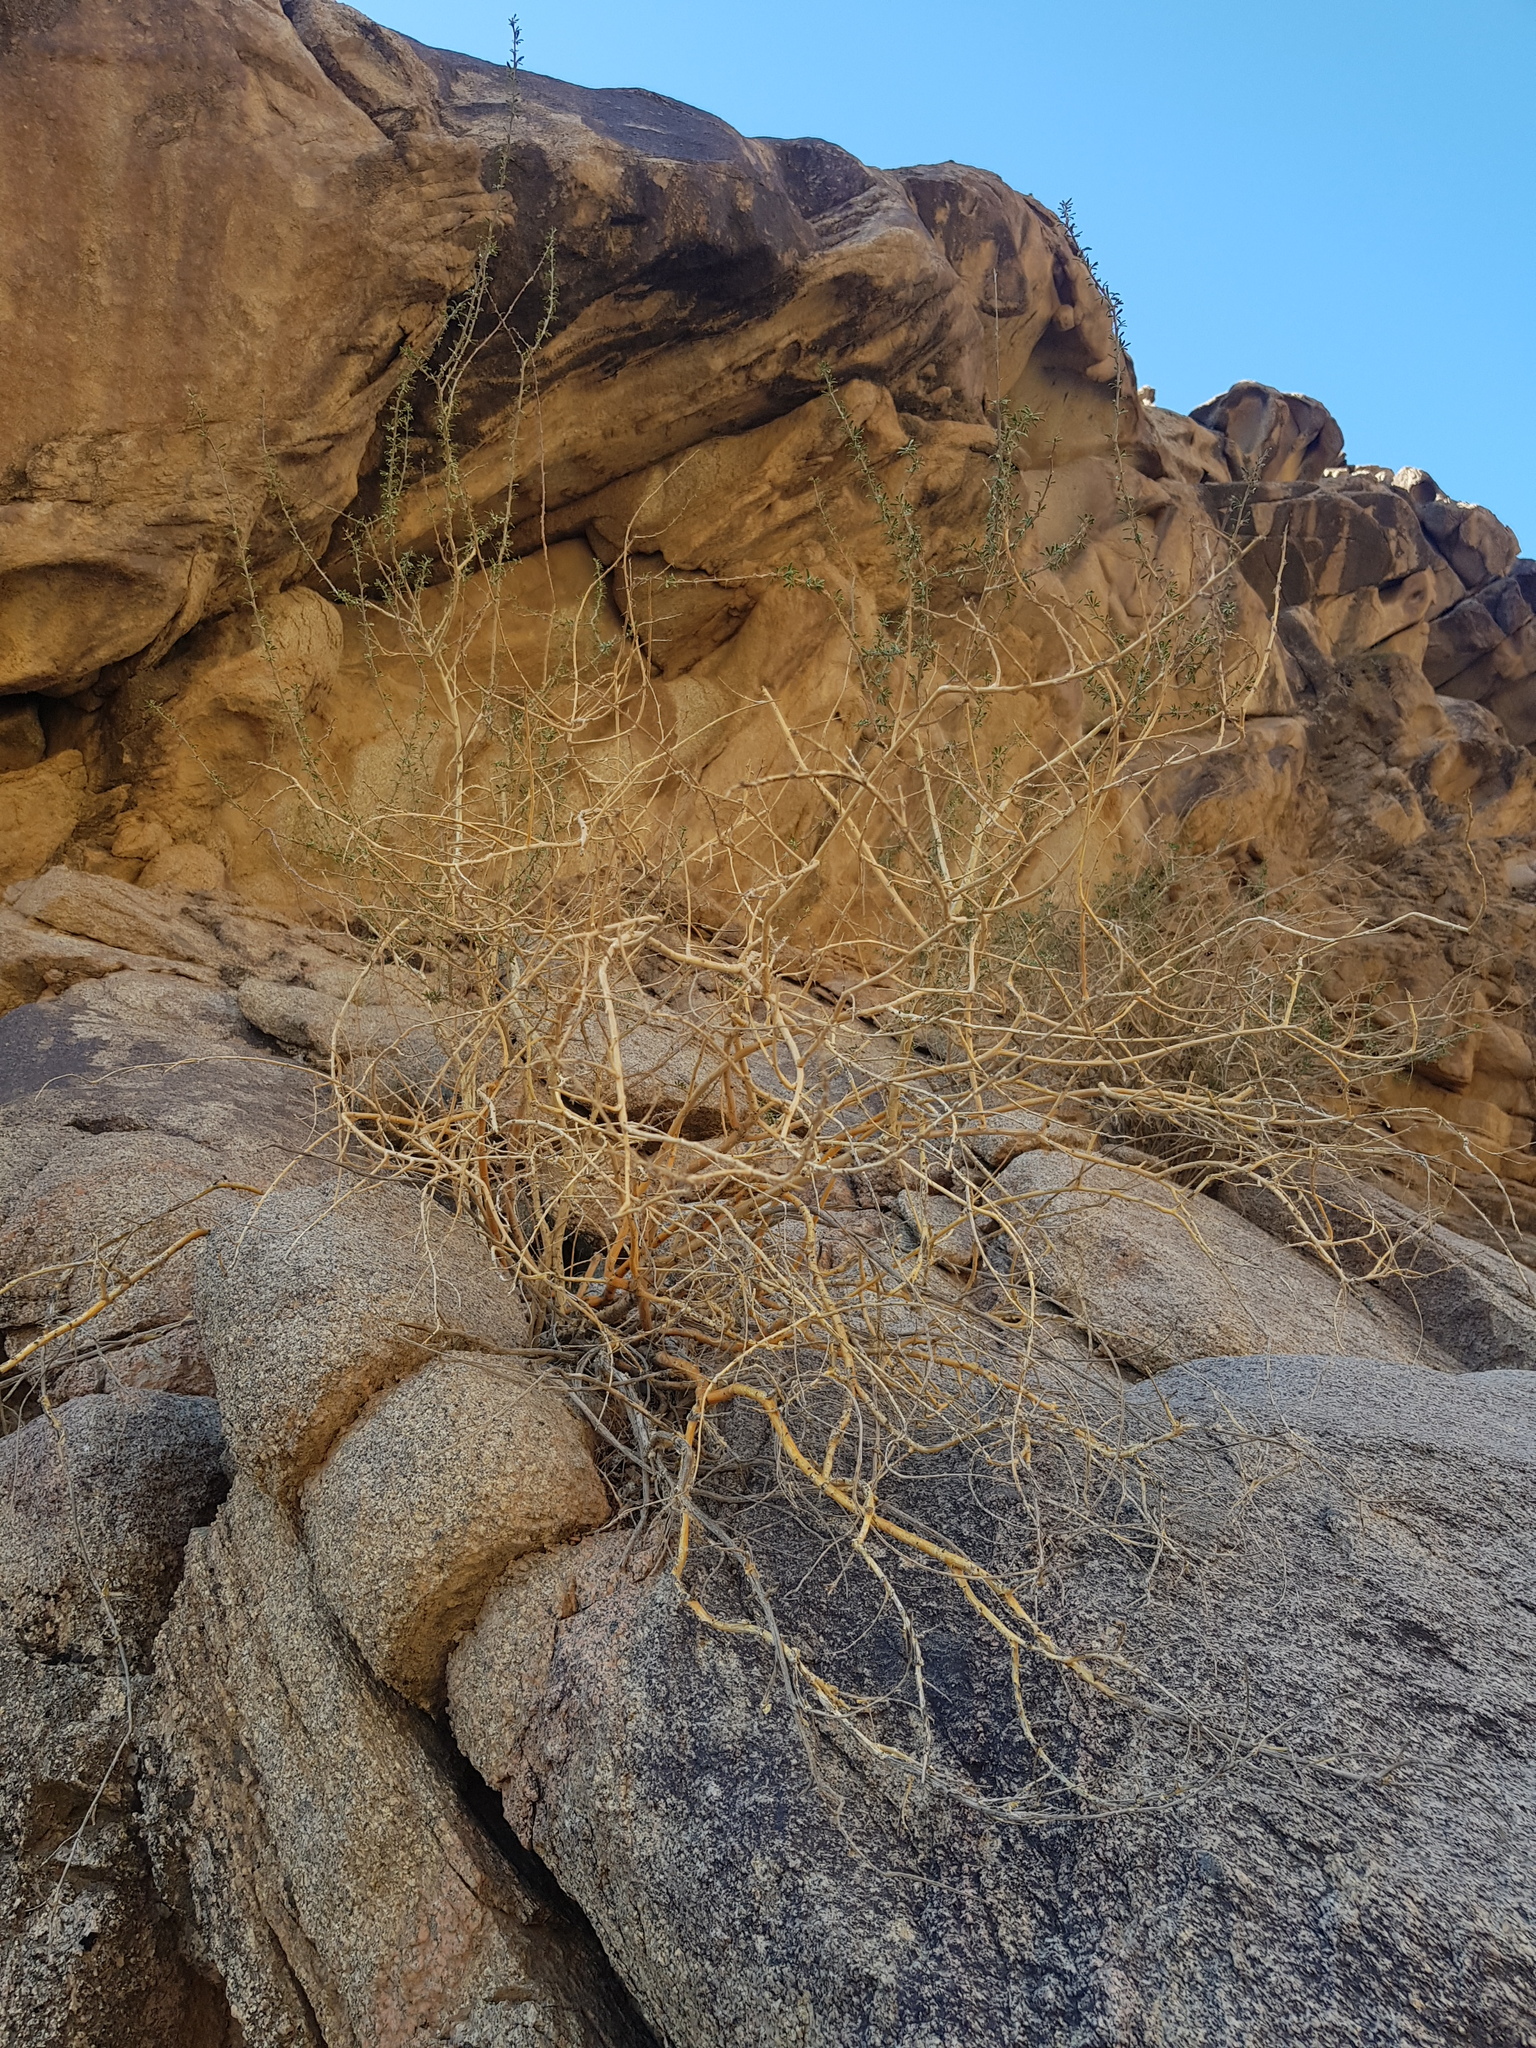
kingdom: Plantae
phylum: Tracheophyta
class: Magnoliopsida
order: Fabales
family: Fabaceae
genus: Caragana
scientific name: Caragana leucophloea
